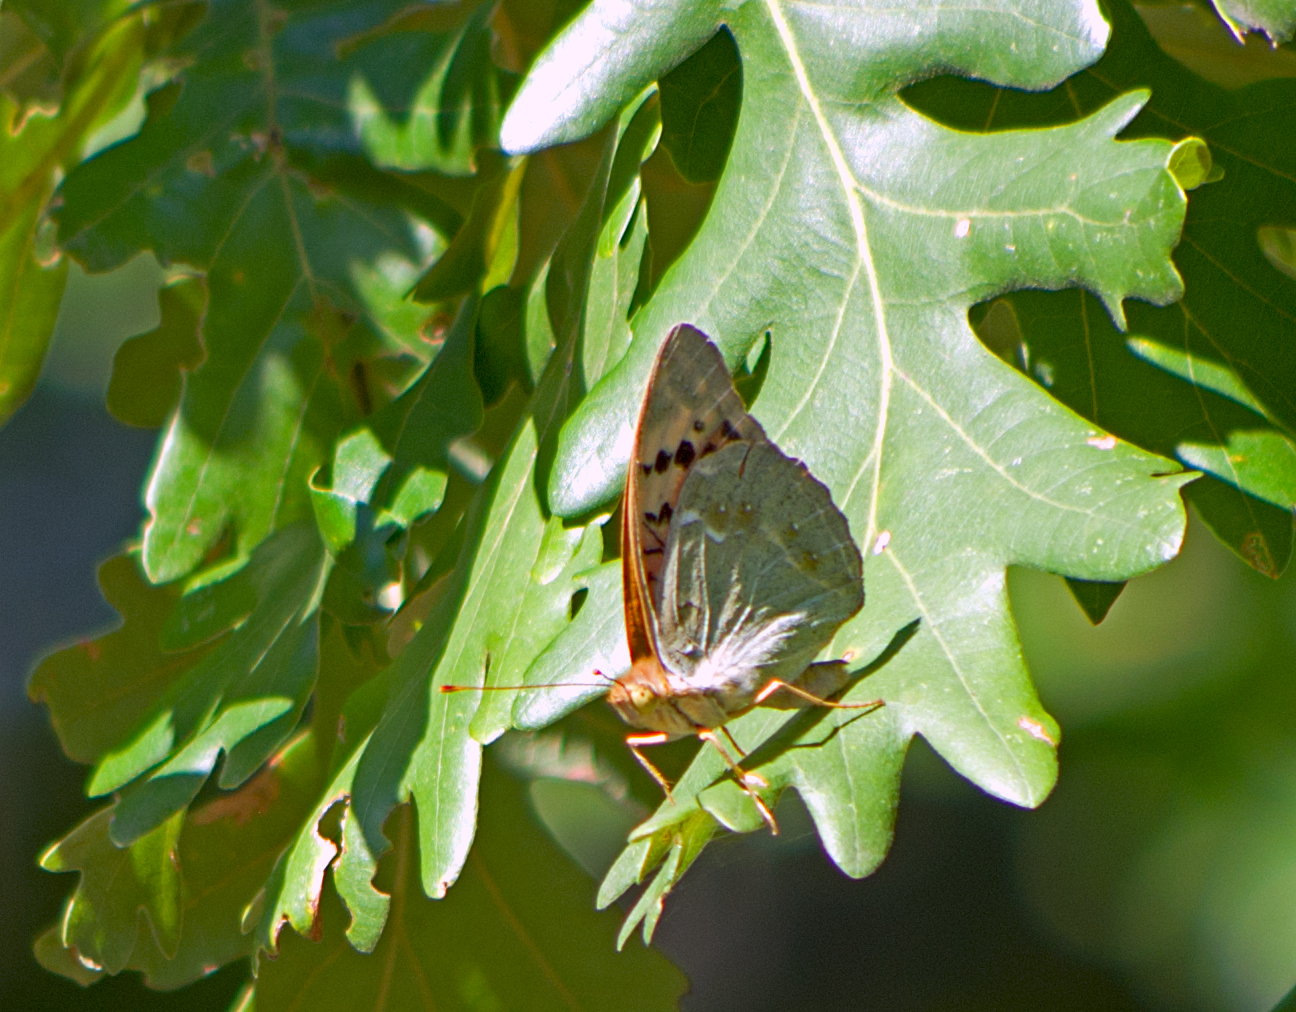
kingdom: Animalia
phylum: Arthropoda
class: Insecta
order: Lepidoptera
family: Nymphalidae
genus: Damora
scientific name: Damora pandora
